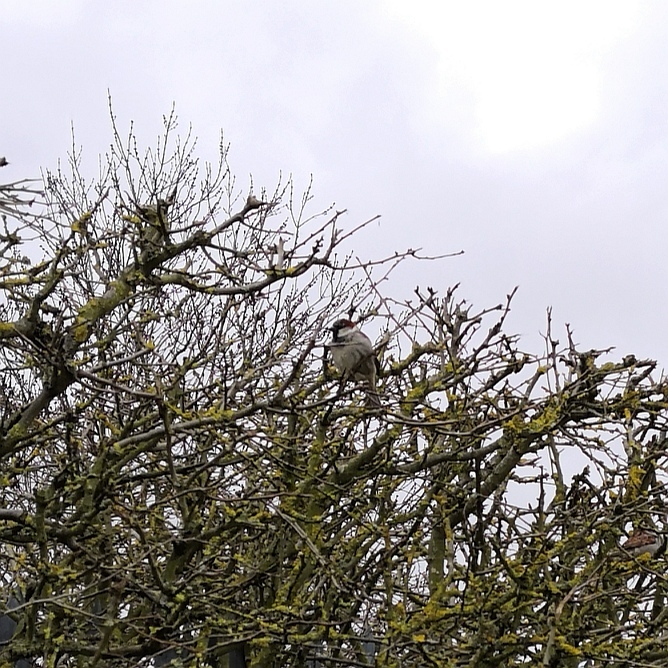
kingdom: Animalia
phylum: Chordata
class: Aves
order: Passeriformes
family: Passeridae
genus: Passer
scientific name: Passer domesticus
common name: House sparrow
